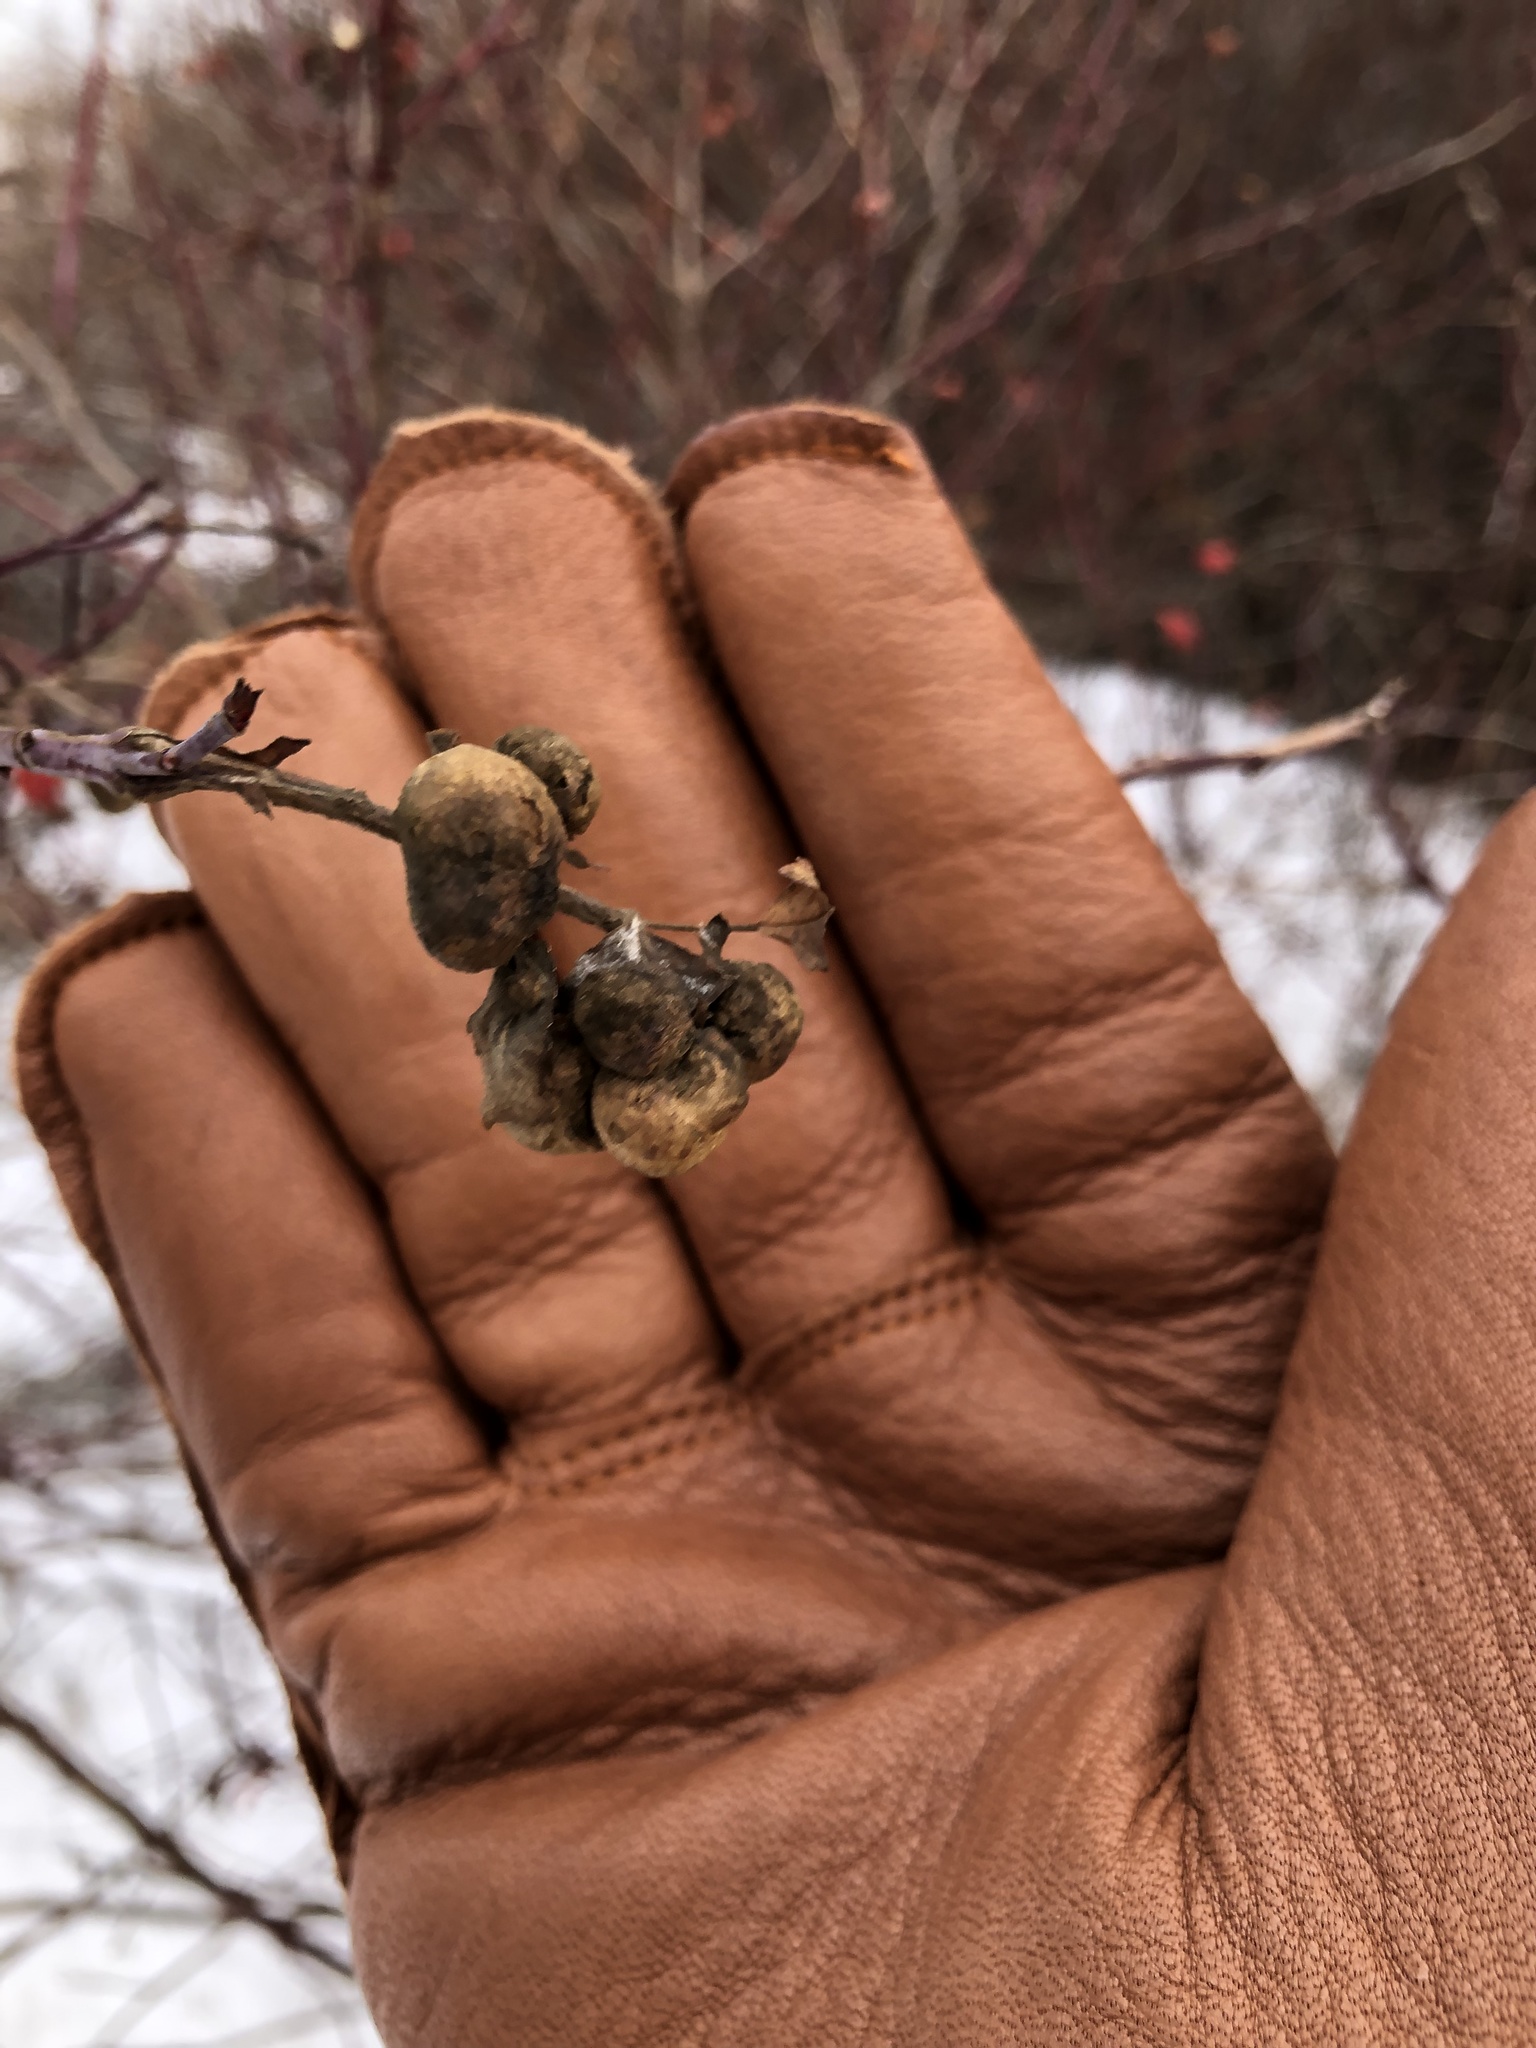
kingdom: Animalia
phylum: Arthropoda
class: Insecta
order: Hymenoptera
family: Cynipidae
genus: Diplolepis
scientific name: Diplolepis variabilis
